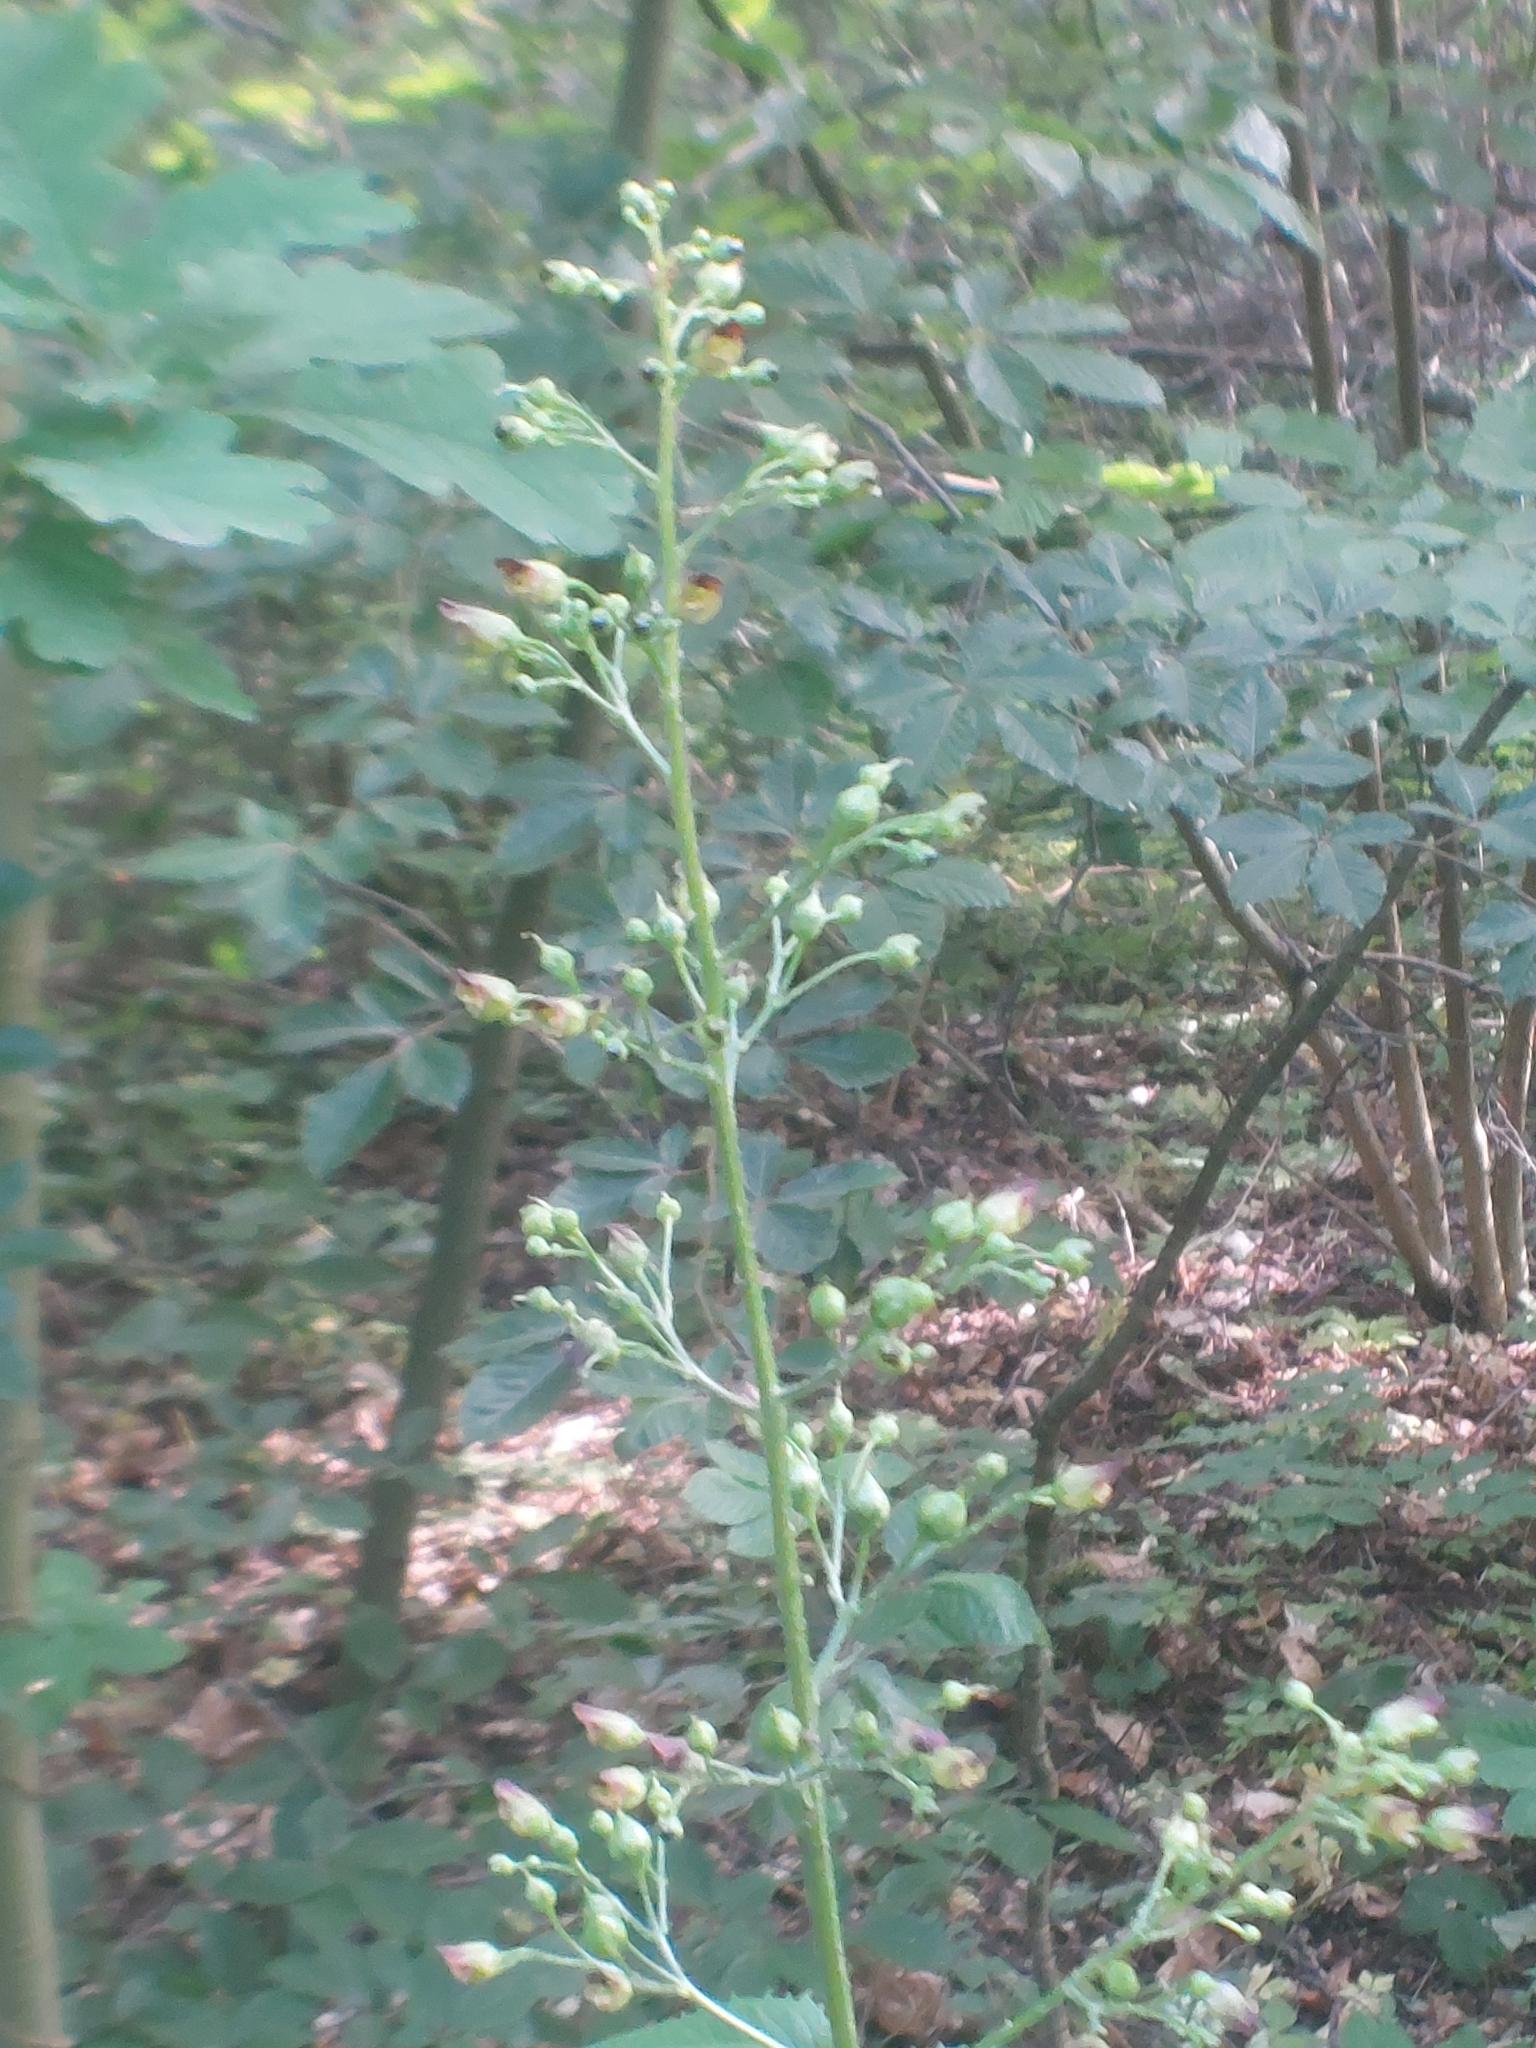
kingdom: Plantae
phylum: Tracheophyta
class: Magnoliopsida
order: Lamiales
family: Scrophulariaceae
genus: Scrophularia
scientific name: Scrophularia nodosa
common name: Common figwort
